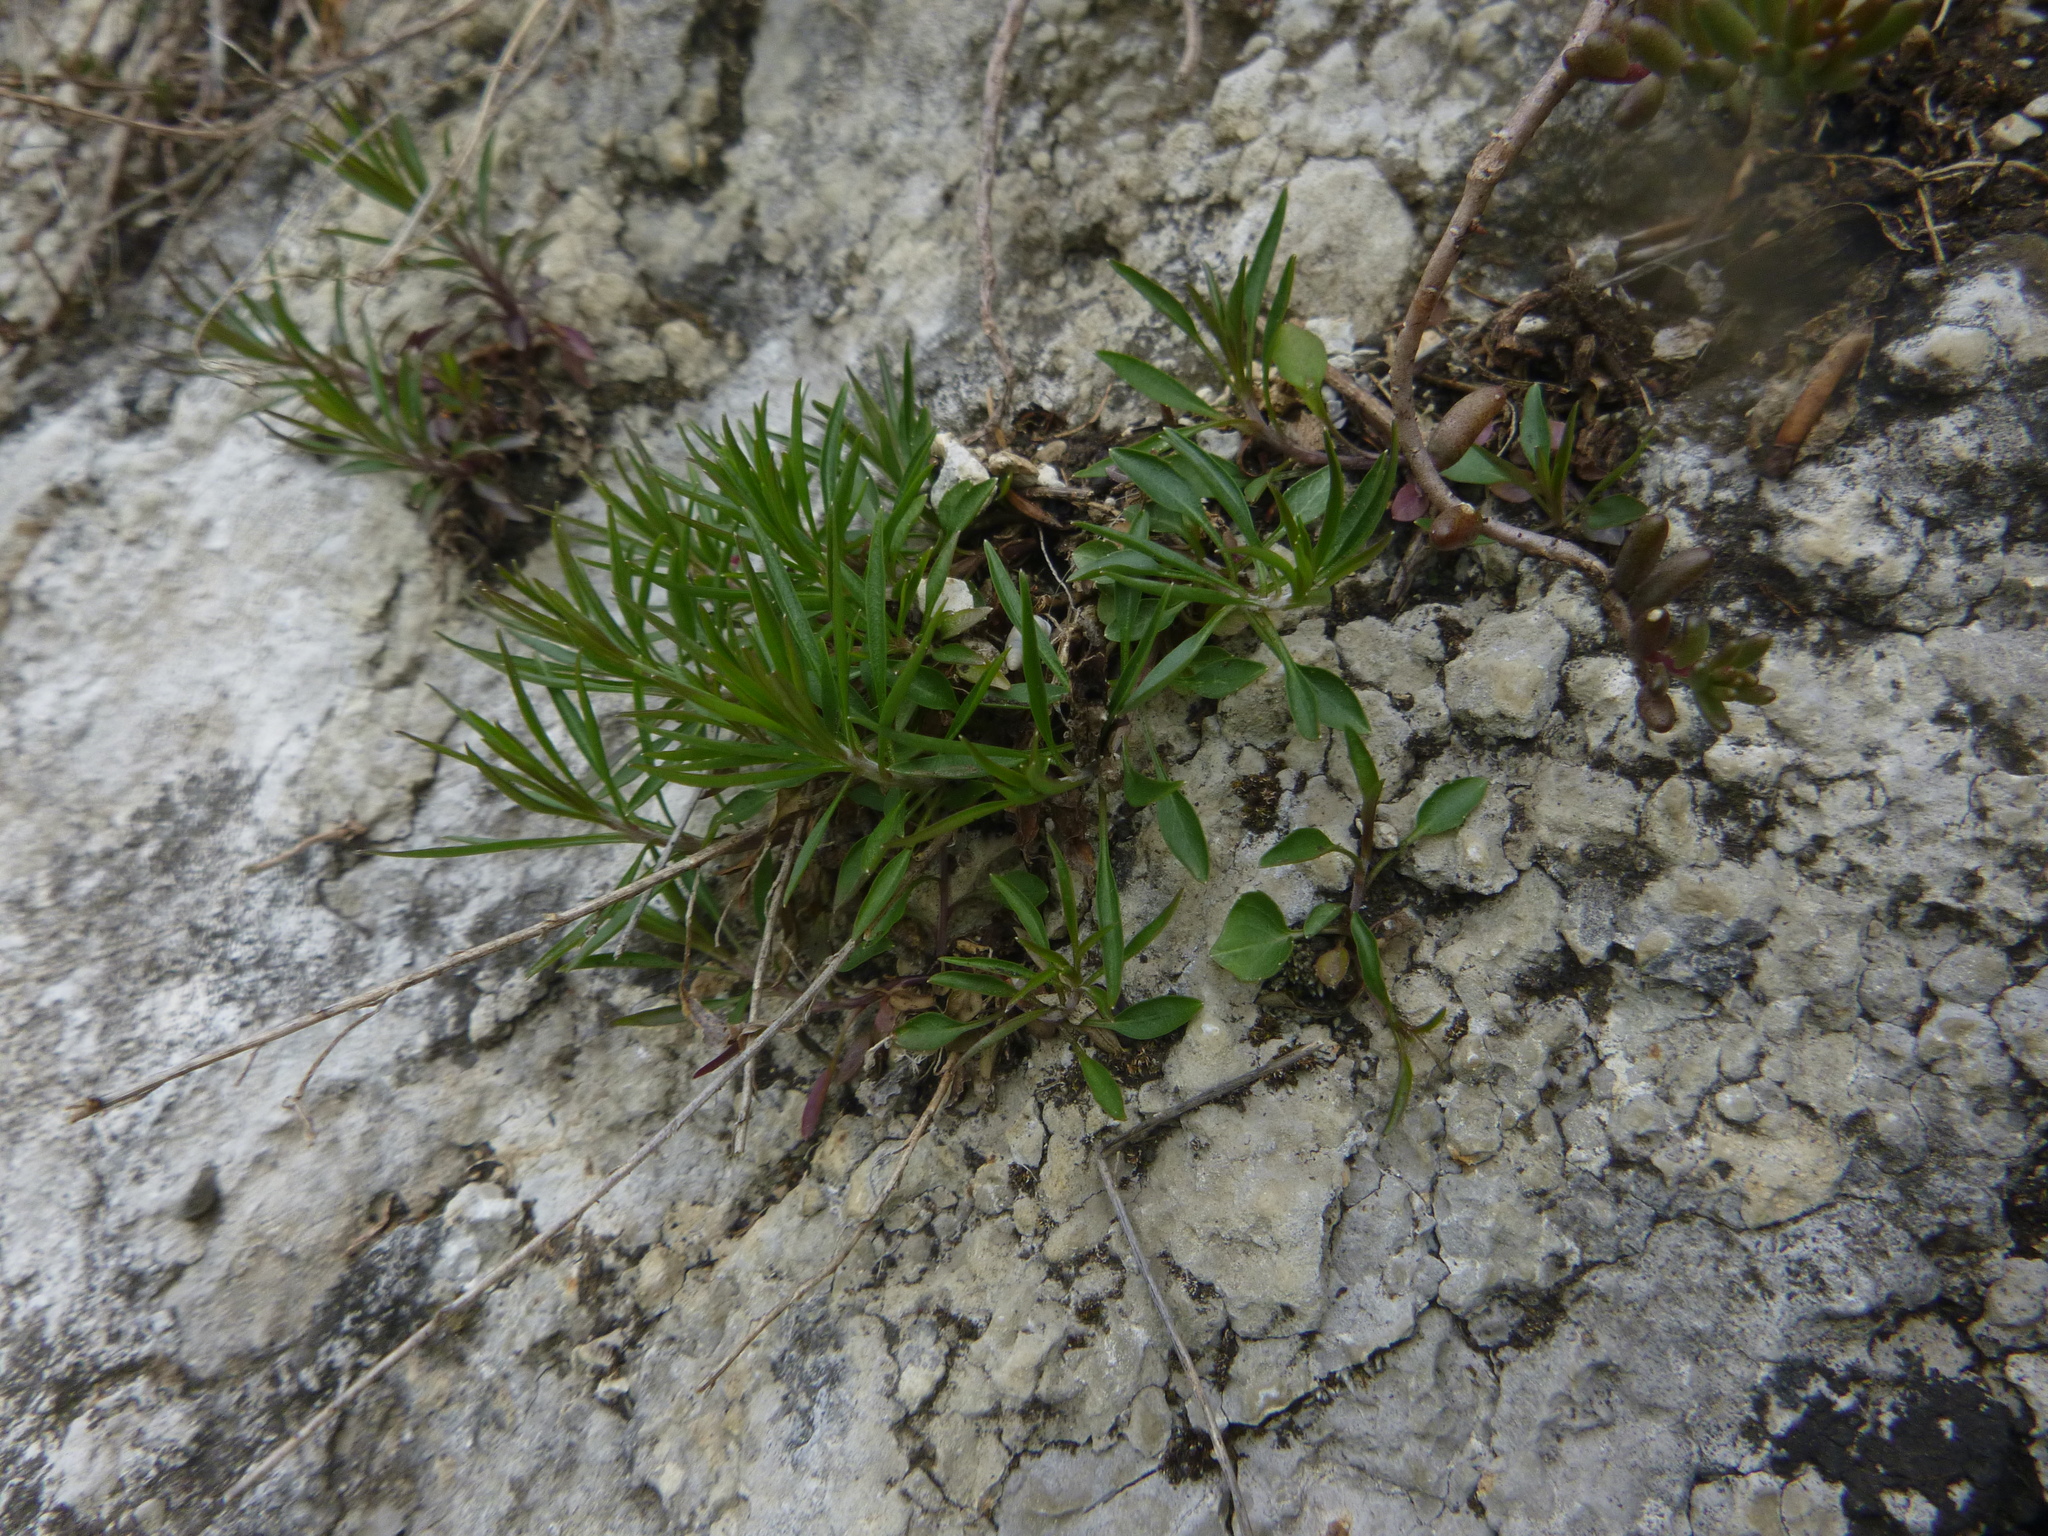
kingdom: Plantae
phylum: Tracheophyta
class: Magnoliopsida
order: Asterales
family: Campanulaceae
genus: Campanula
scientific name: Campanula
